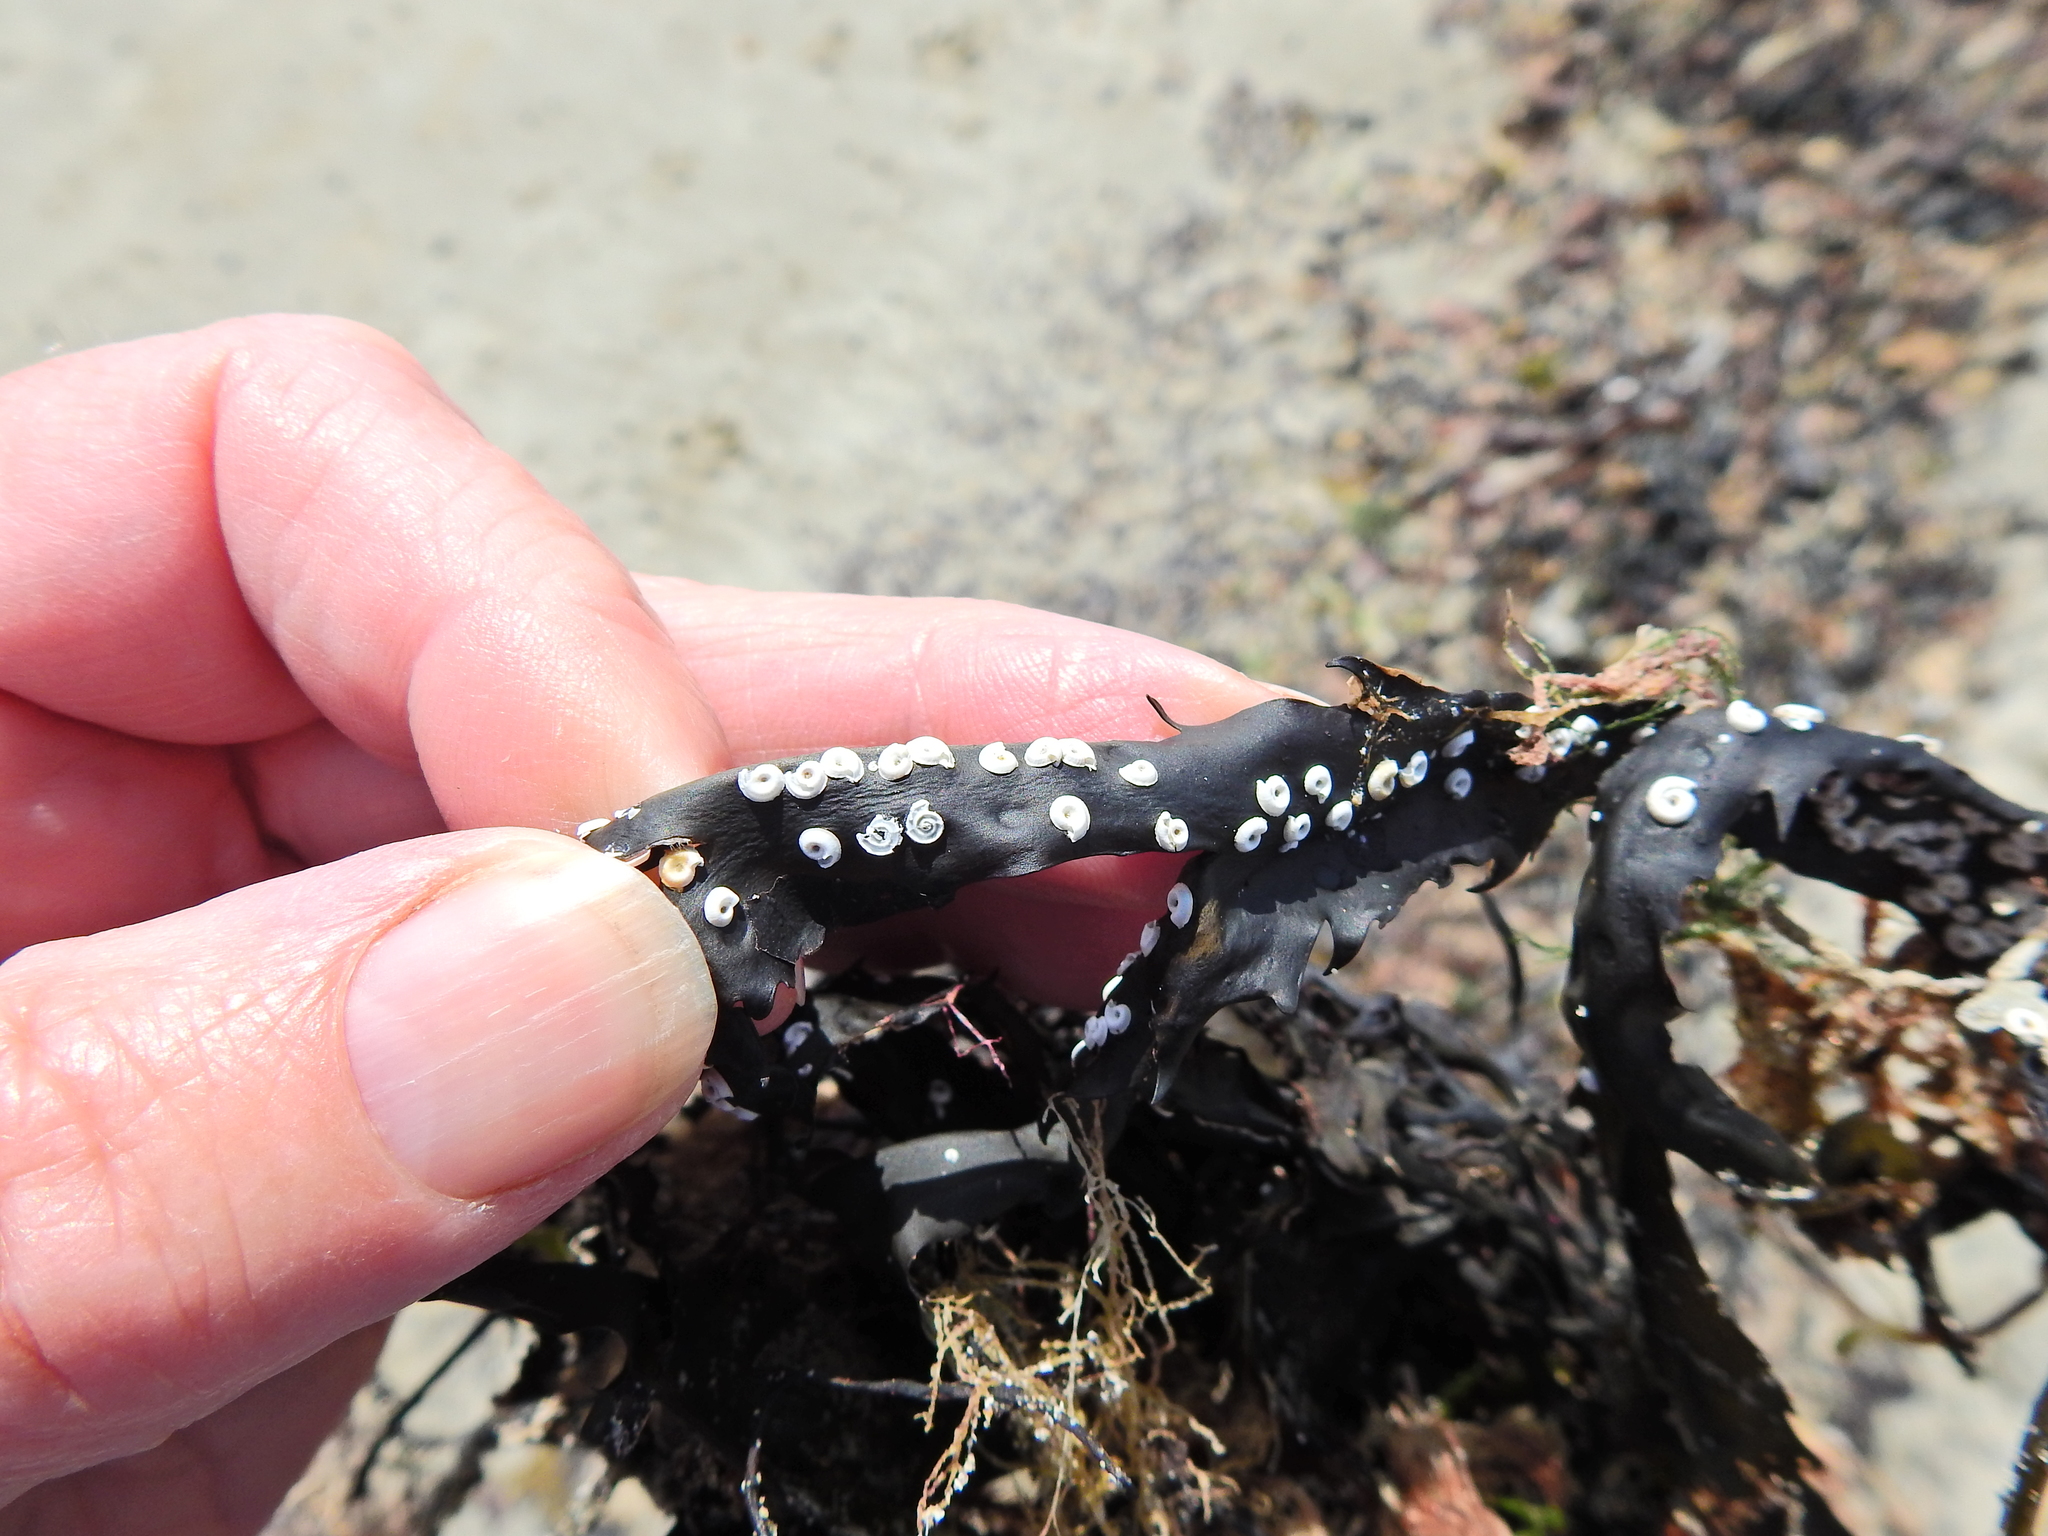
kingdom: Animalia
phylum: Annelida
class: Polychaeta
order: Sabellida
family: Serpulidae
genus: Spirorbis
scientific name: Spirorbis spirorbis
